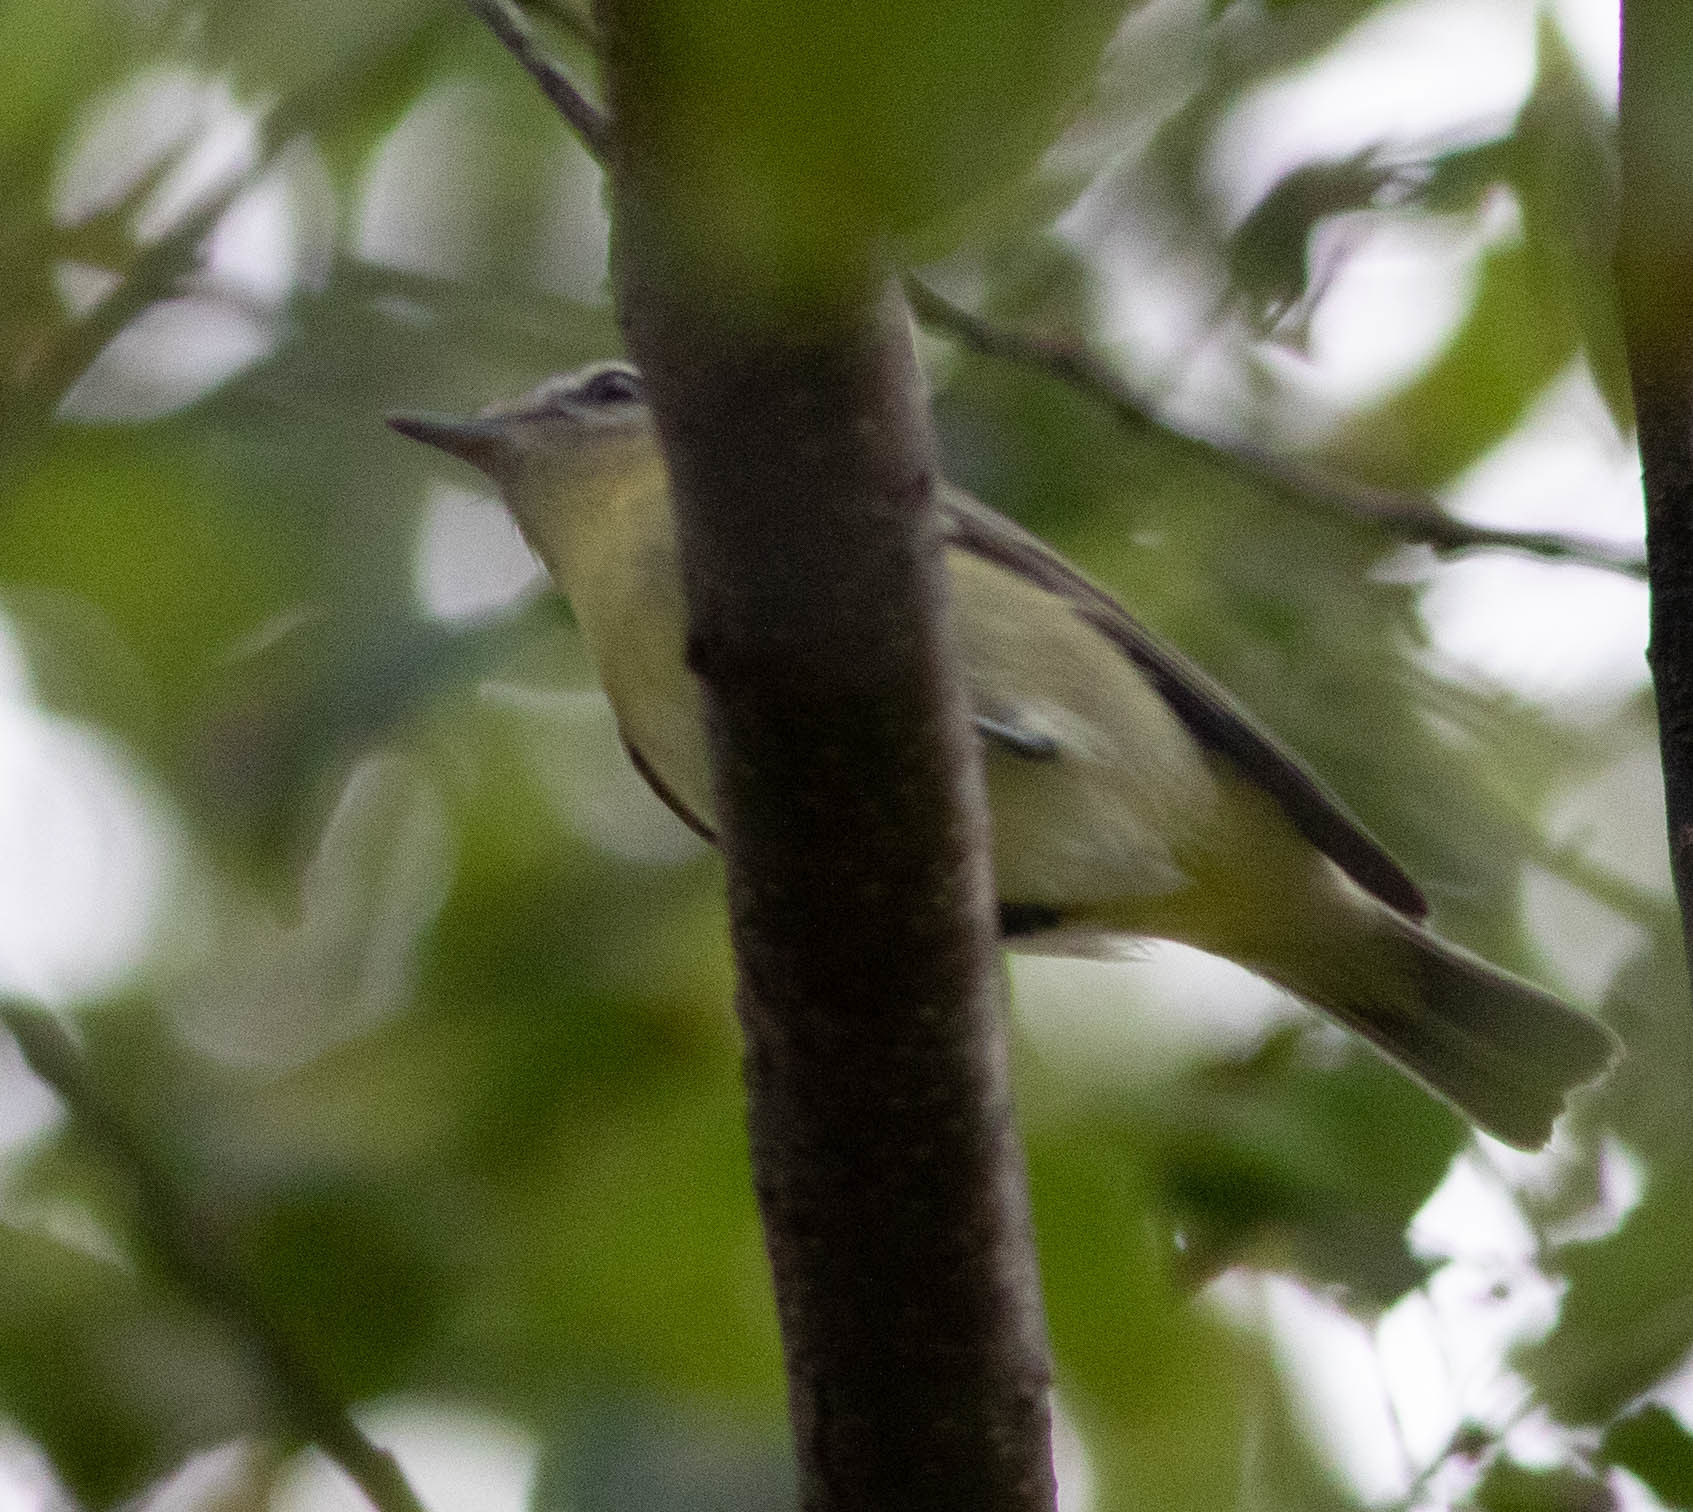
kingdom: Animalia
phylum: Chordata
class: Aves
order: Passeriformes
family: Vireonidae
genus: Vireo
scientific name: Vireo philadelphicus
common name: Philadelphia vireo
